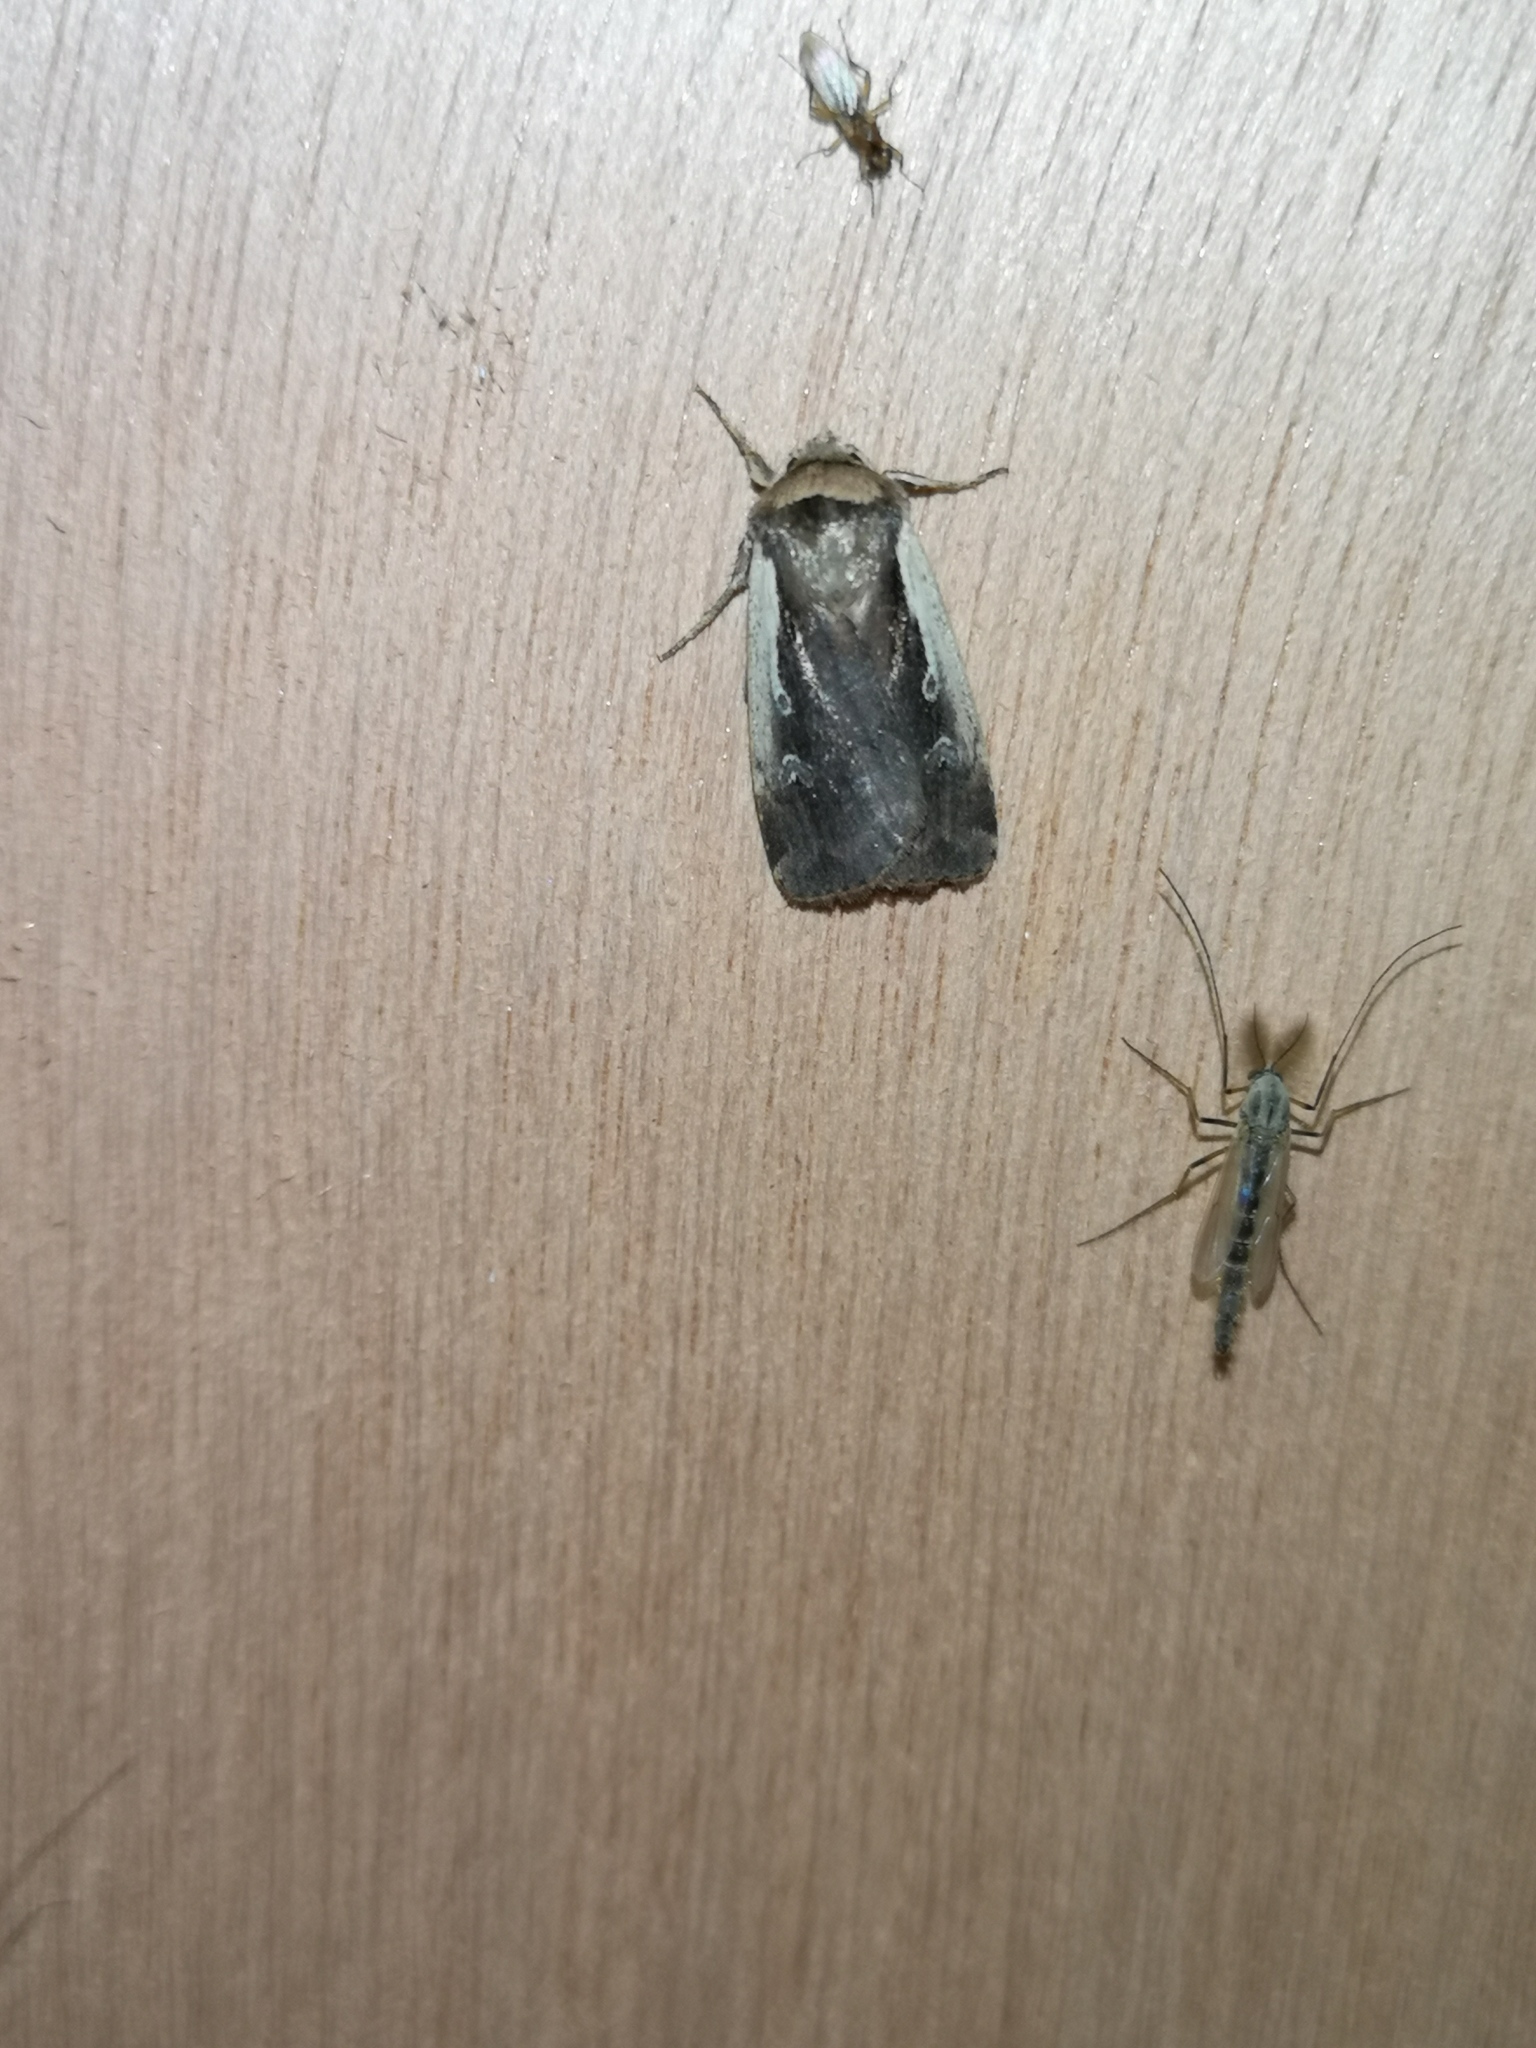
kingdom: Animalia
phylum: Arthropoda
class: Insecta
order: Lepidoptera
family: Noctuidae
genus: Ochropleura
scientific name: Ochropleura plecta
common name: Flame shoulder
